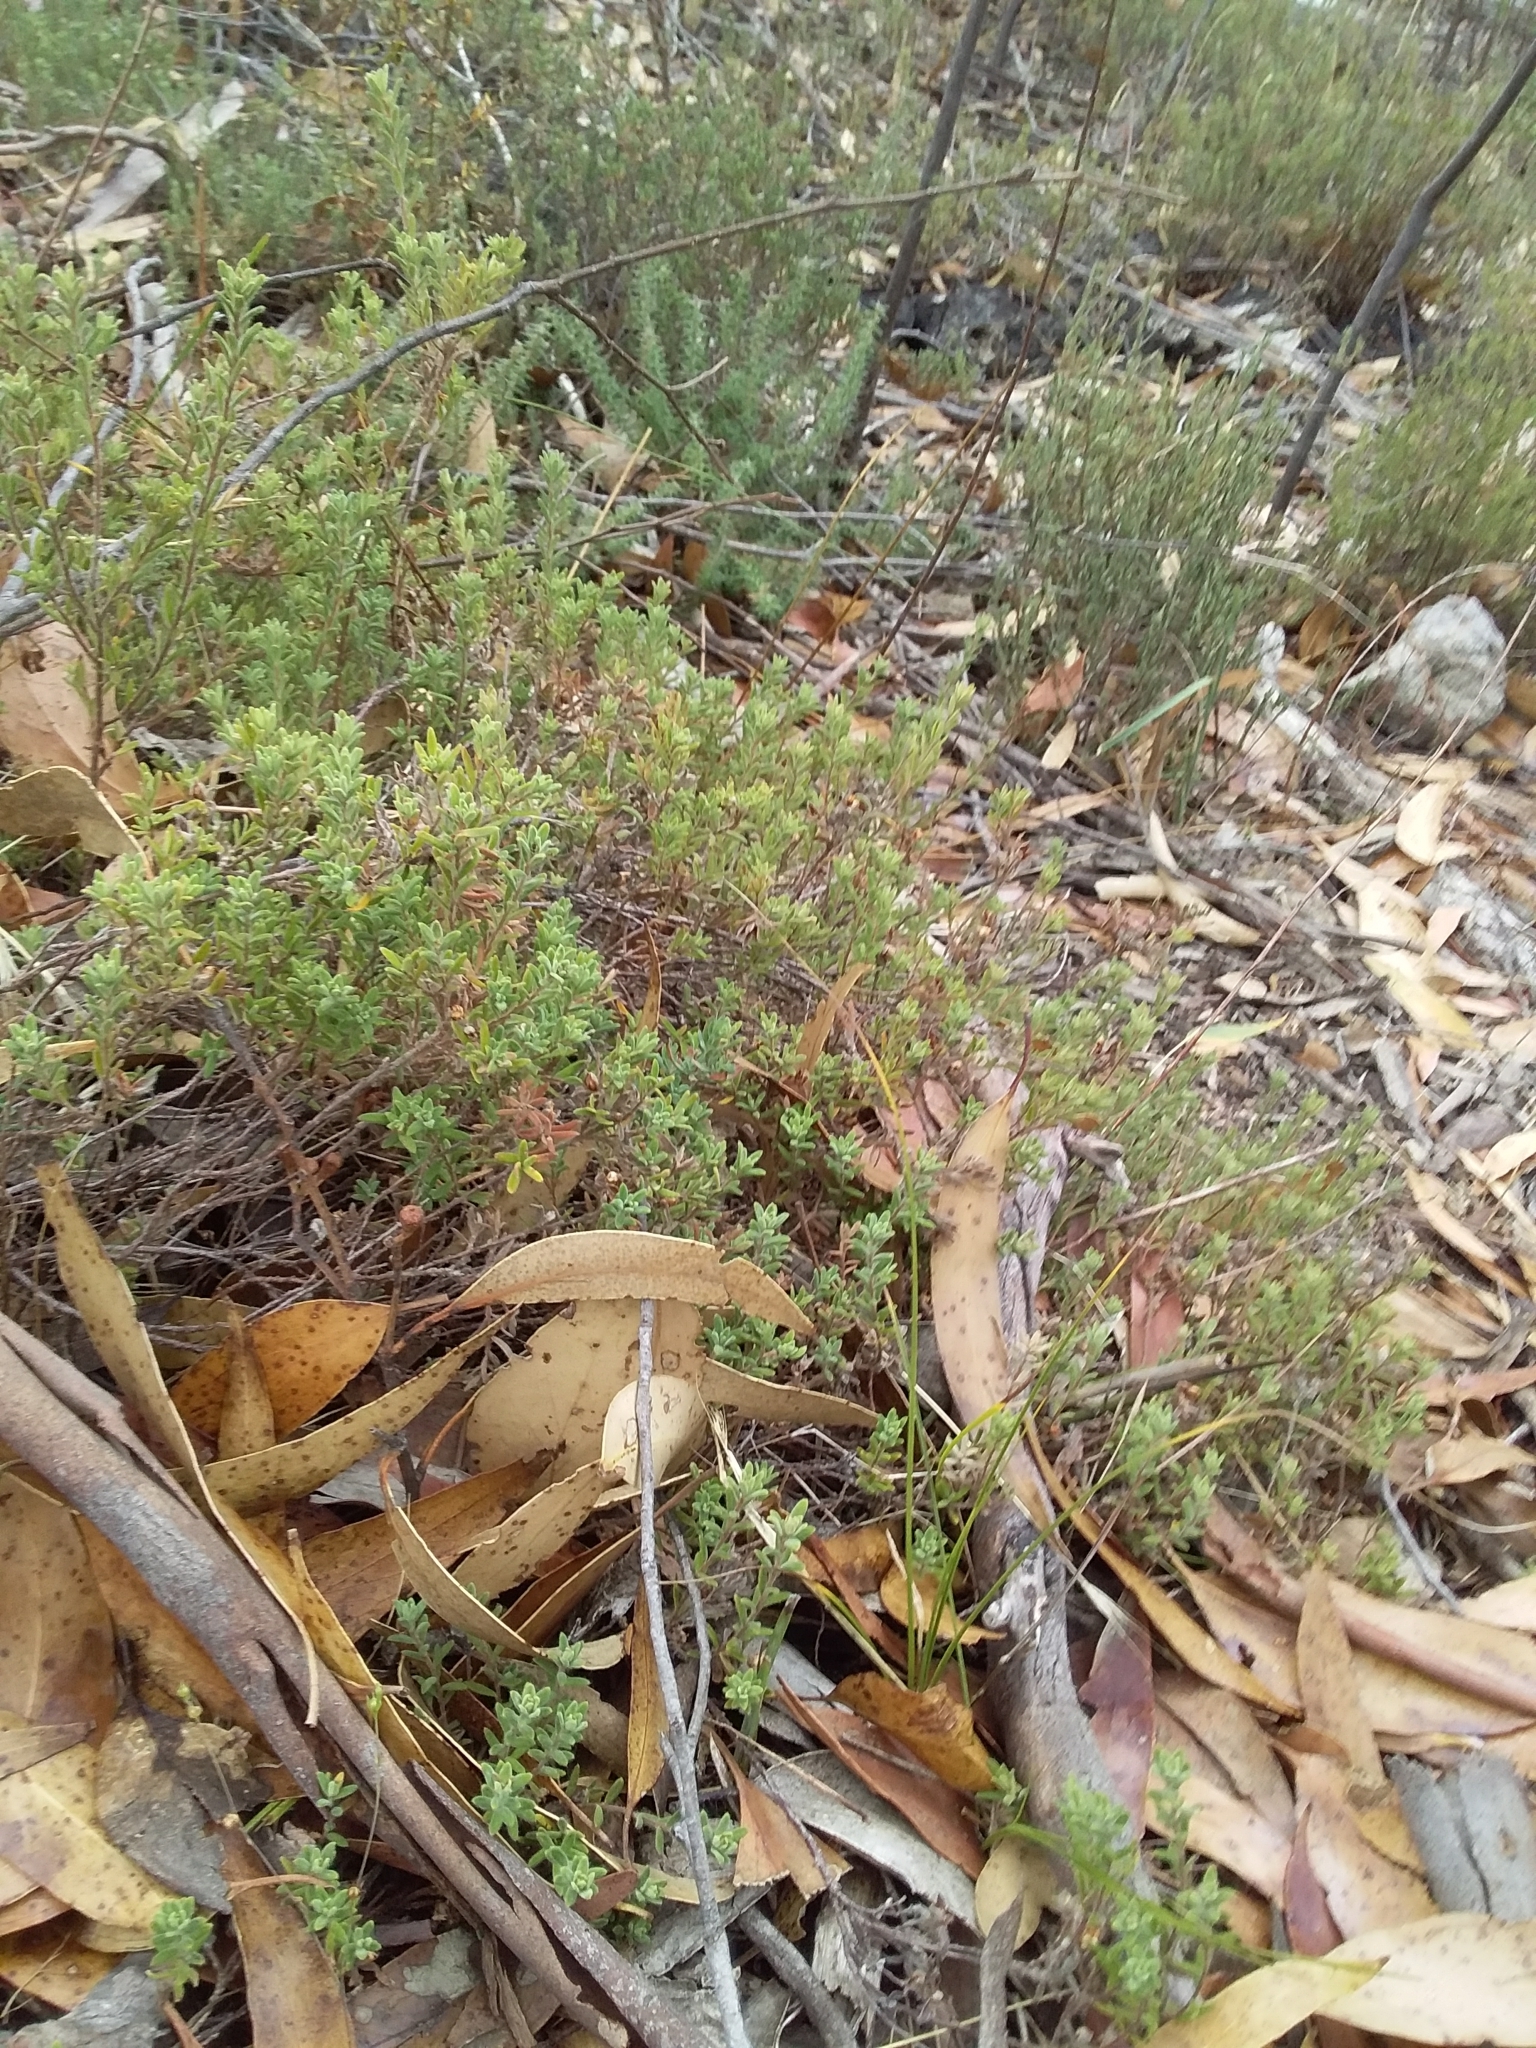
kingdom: Plantae
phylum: Tracheophyta
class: Magnoliopsida
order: Dilleniales
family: Dilleniaceae
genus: Hibbertia
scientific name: Hibbertia crinita
